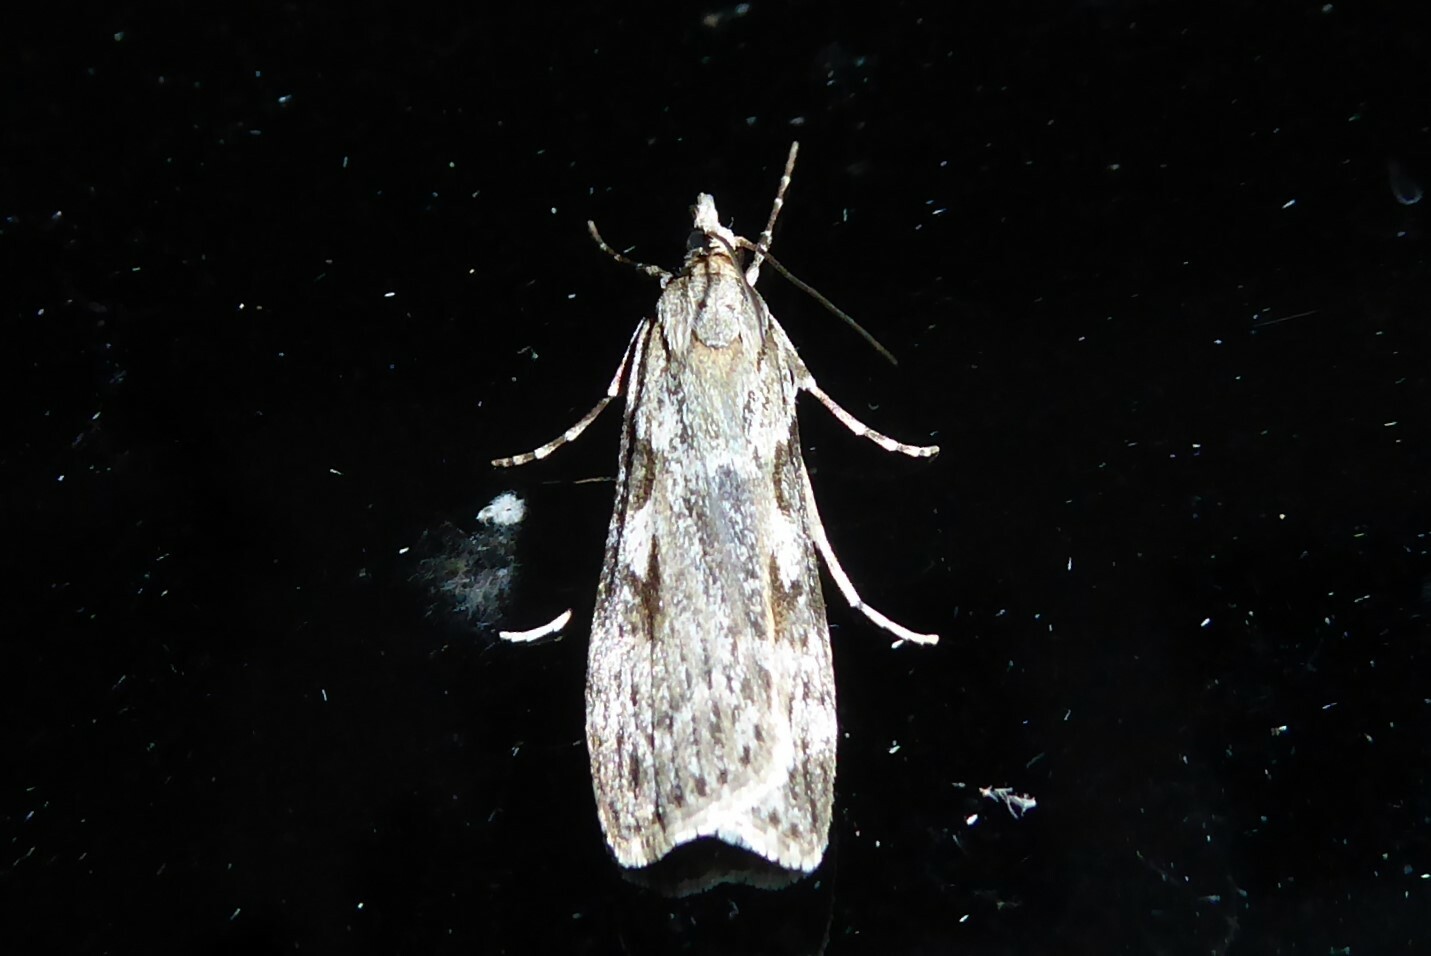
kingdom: Animalia
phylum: Arthropoda
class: Insecta
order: Lepidoptera
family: Crambidae
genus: Scoparia
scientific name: Scoparia halopis
